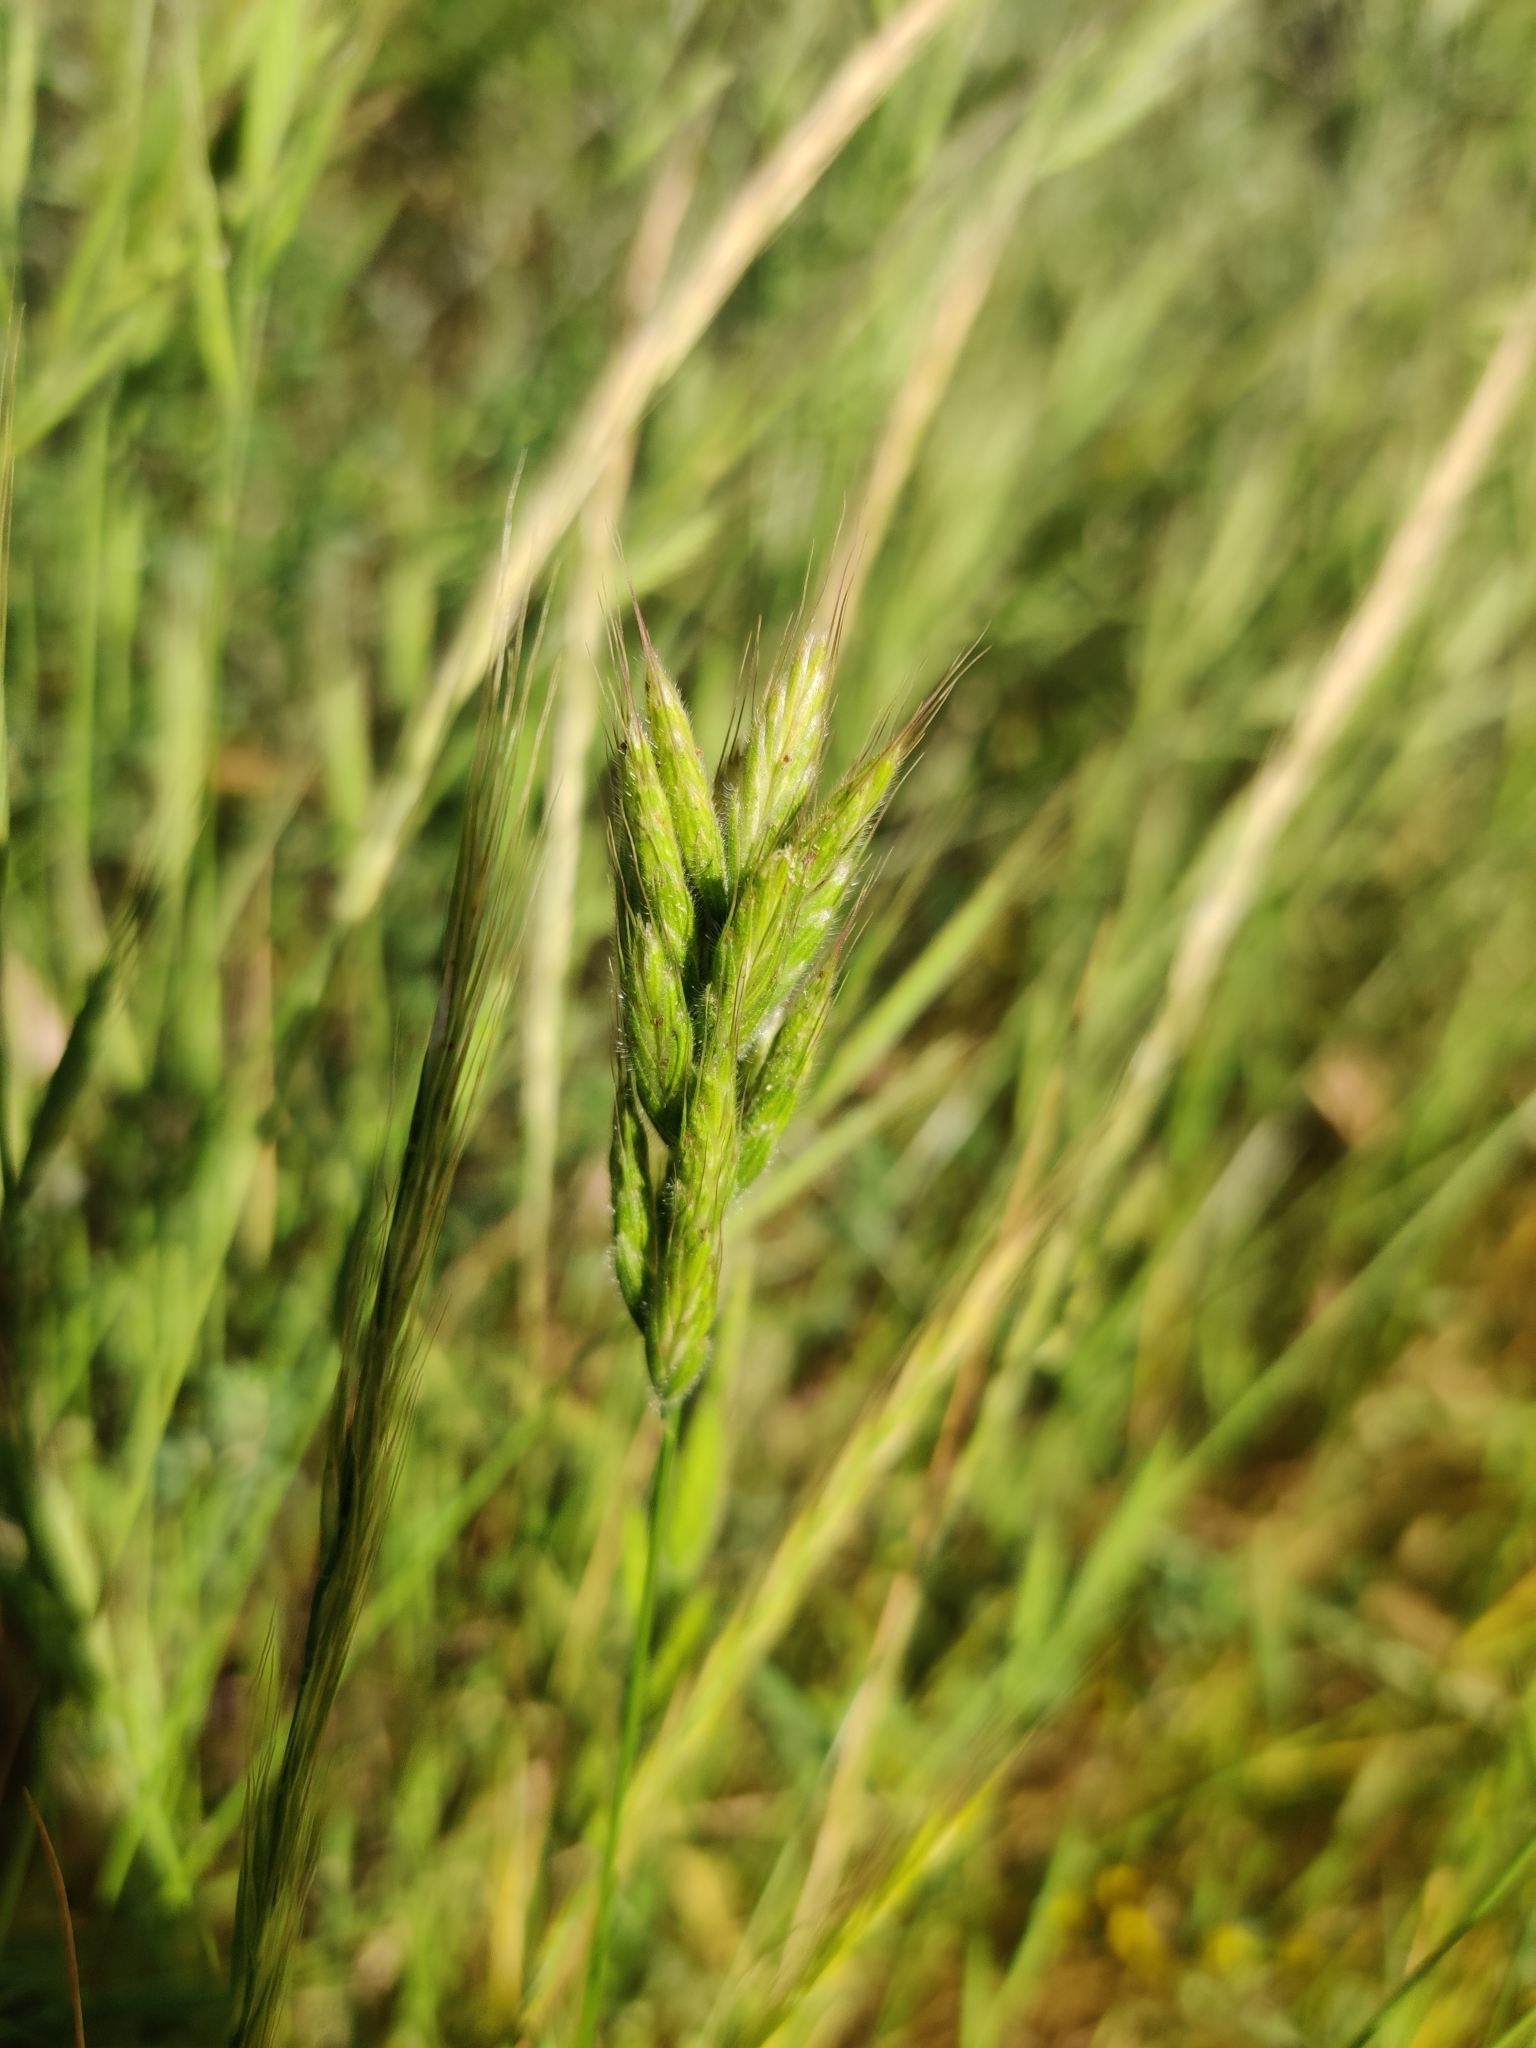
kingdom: Plantae
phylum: Tracheophyta
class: Liliopsida
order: Poales
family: Poaceae
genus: Bromus
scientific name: Bromus hordeaceus
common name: Soft brome
